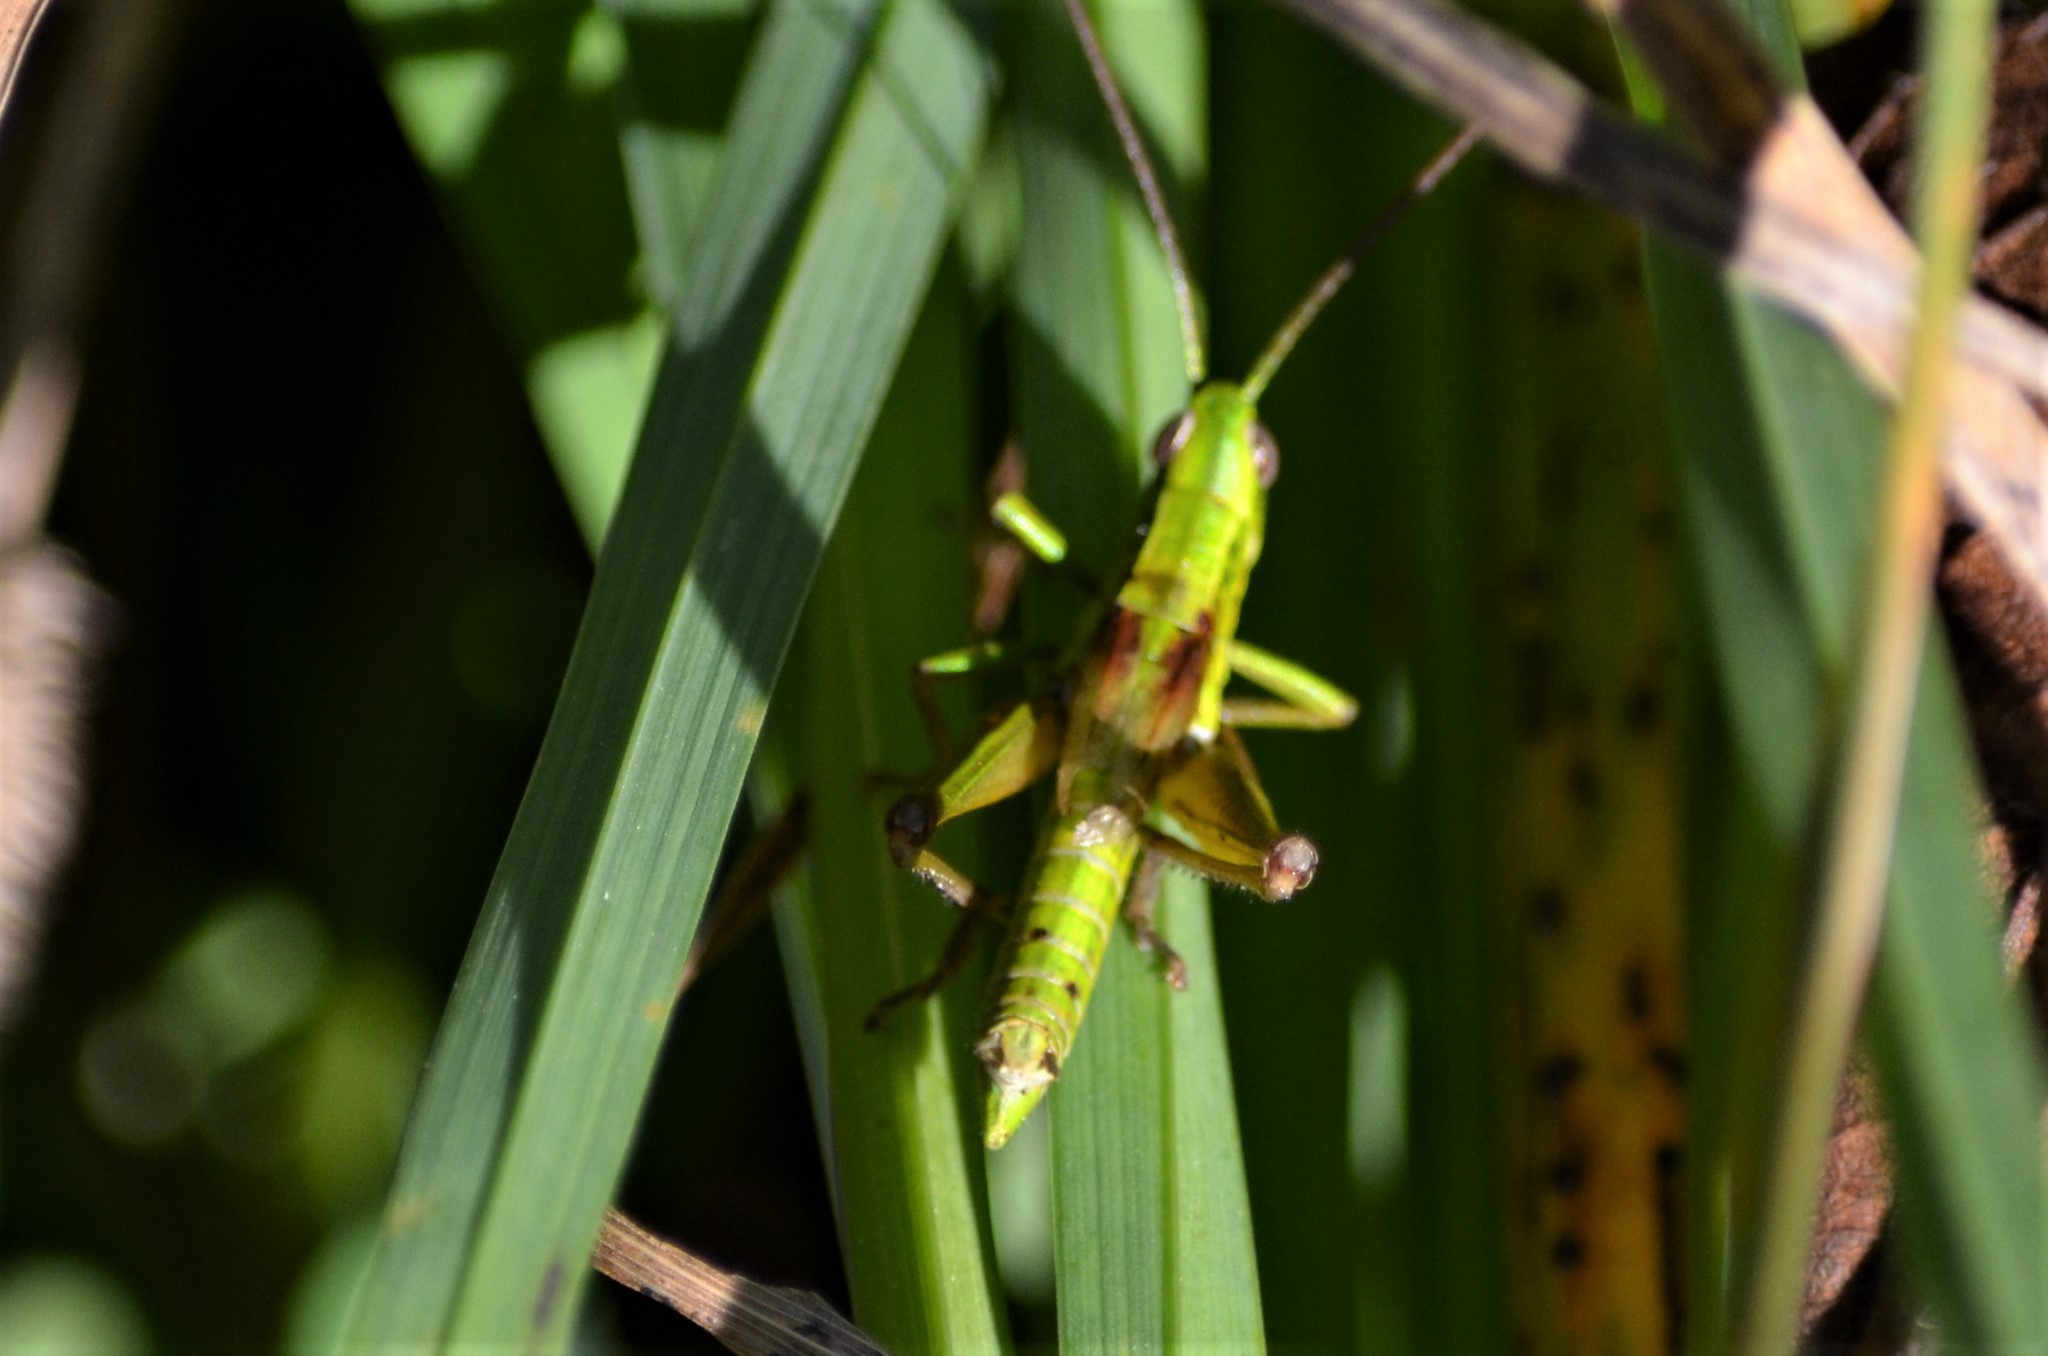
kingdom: Animalia
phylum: Arthropoda
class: Insecta
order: Orthoptera
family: Acrididae
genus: Euthystira
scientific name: Euthystira brachyptera
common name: Small gold grasshopper
